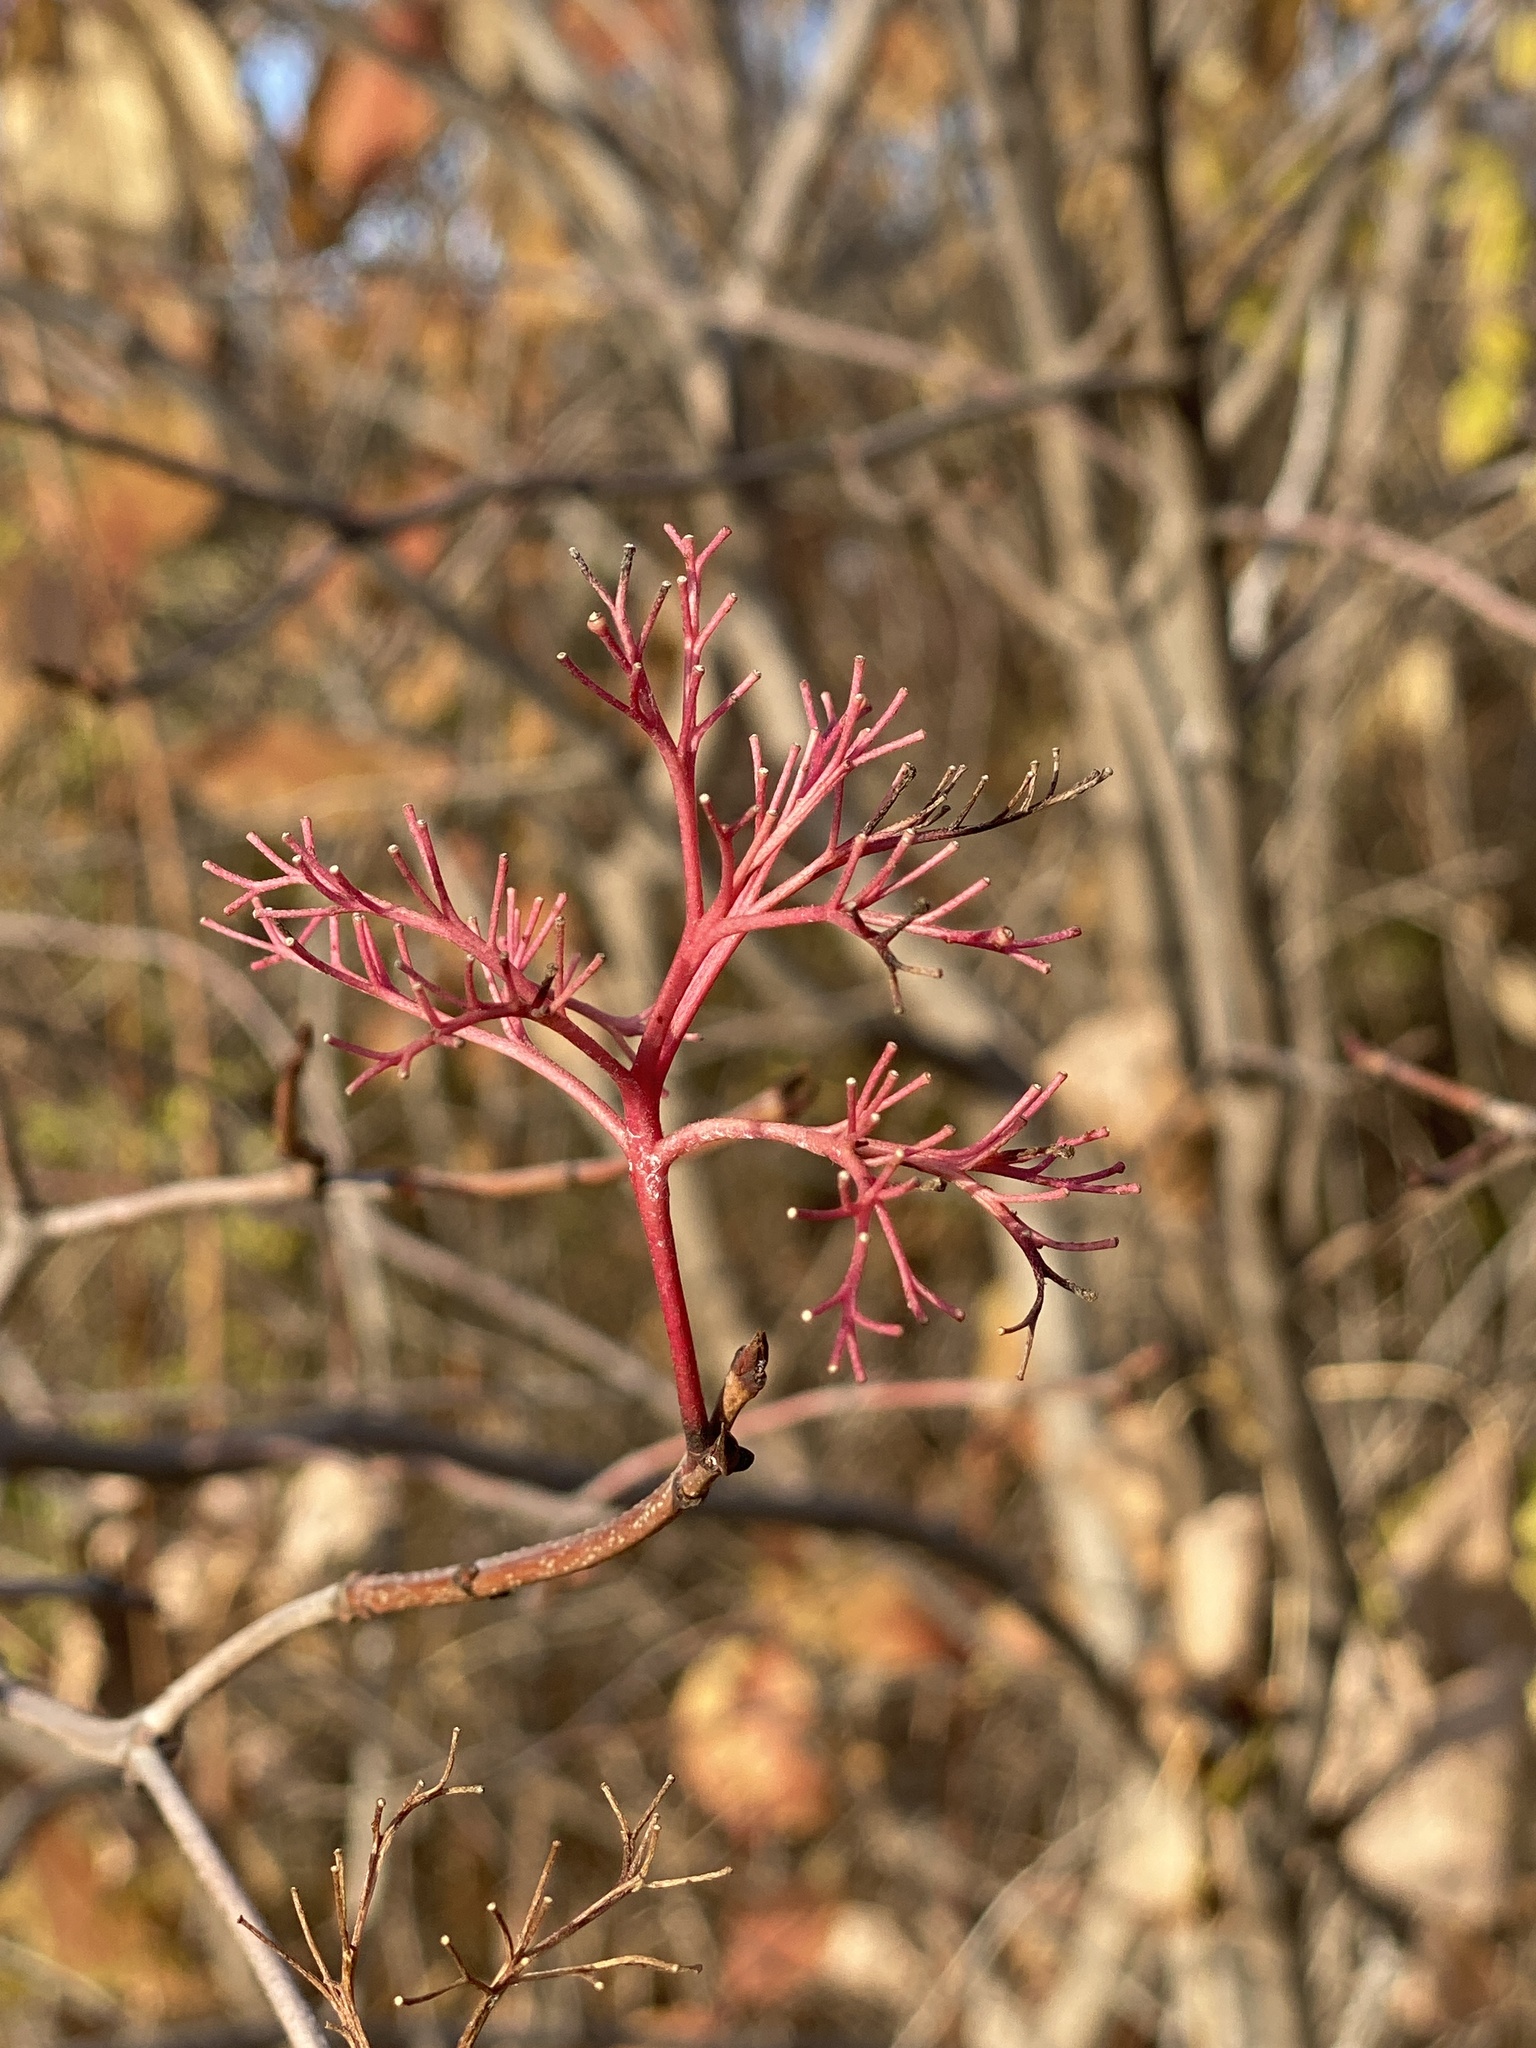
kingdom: Plantae
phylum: Tracheophyta
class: Magnoliopsida
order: Cornales
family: Cornaceae
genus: Cornus
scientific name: Cornus racemosa
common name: Panicled dogwood
